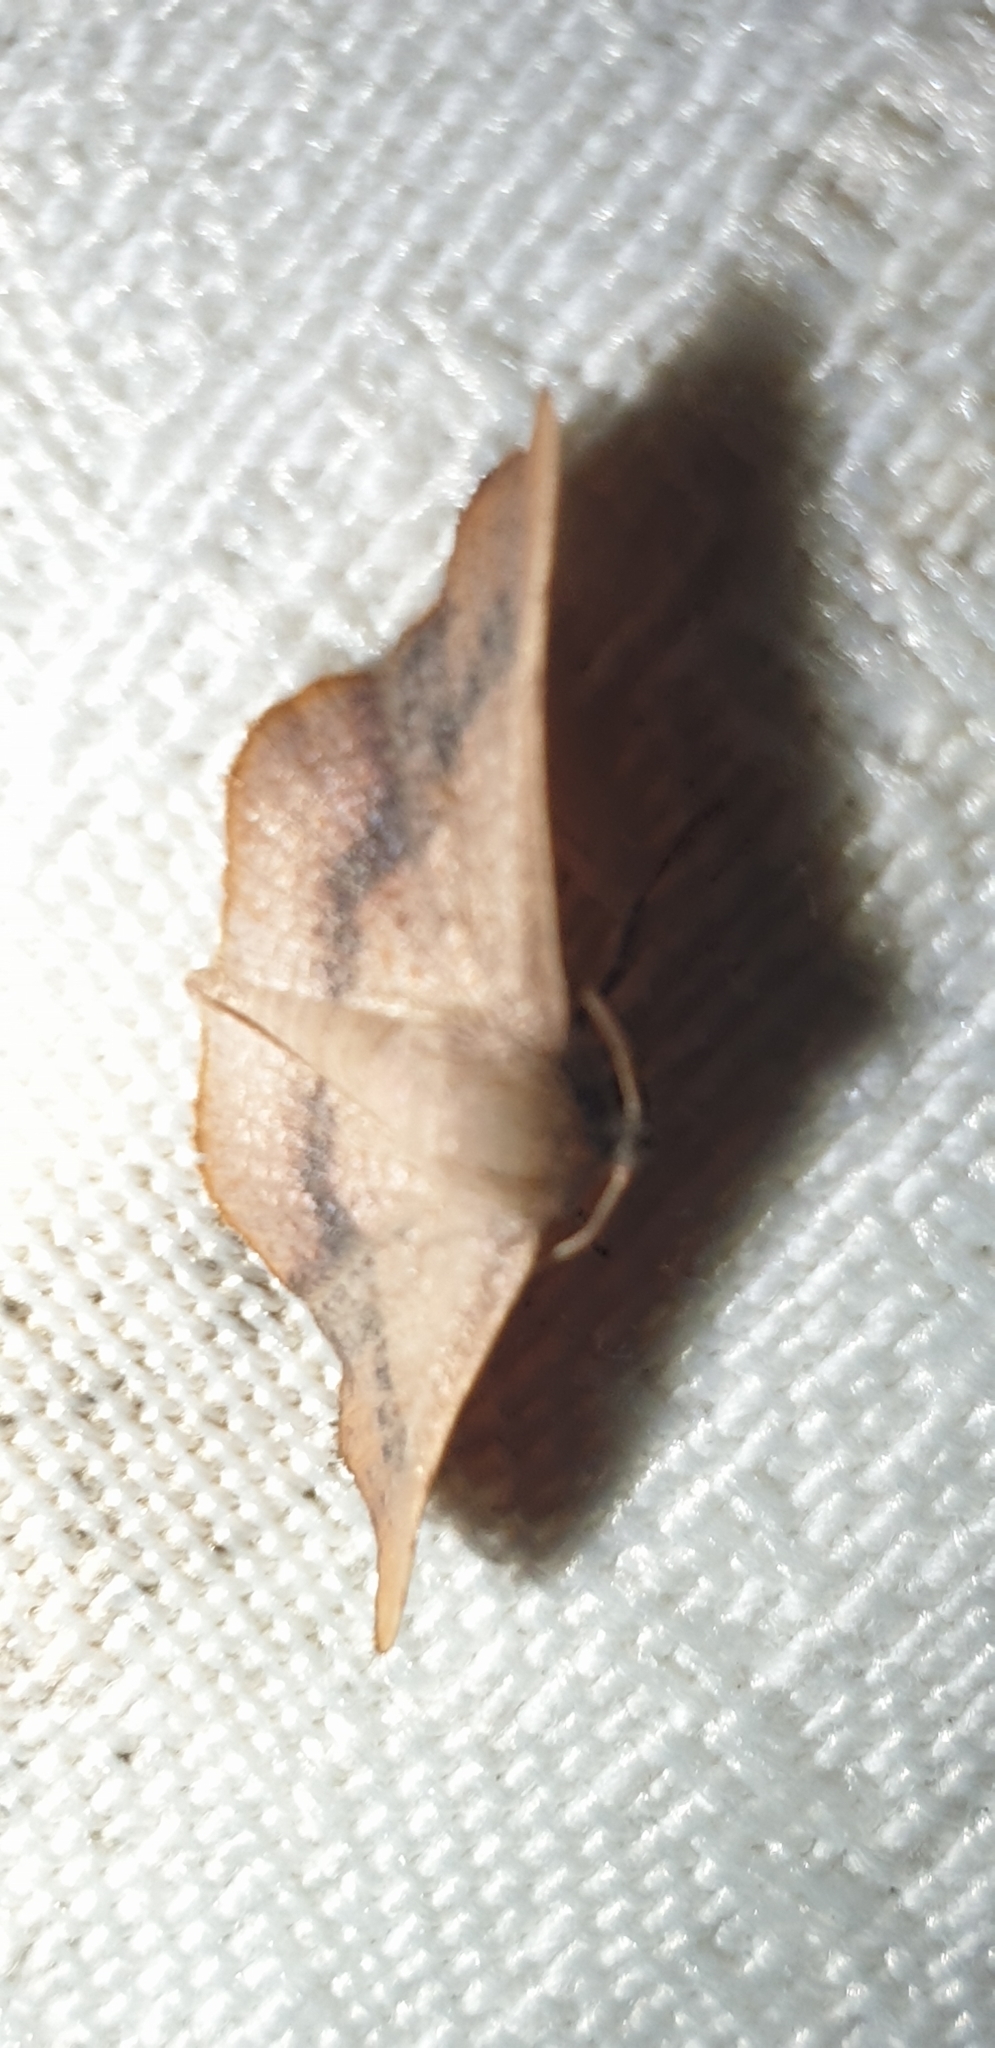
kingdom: Animalia
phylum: Arthropoda
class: Insecta
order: Lepidoptera
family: Thyrididae
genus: Aglaopus
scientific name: Aglaopus centiginosa
